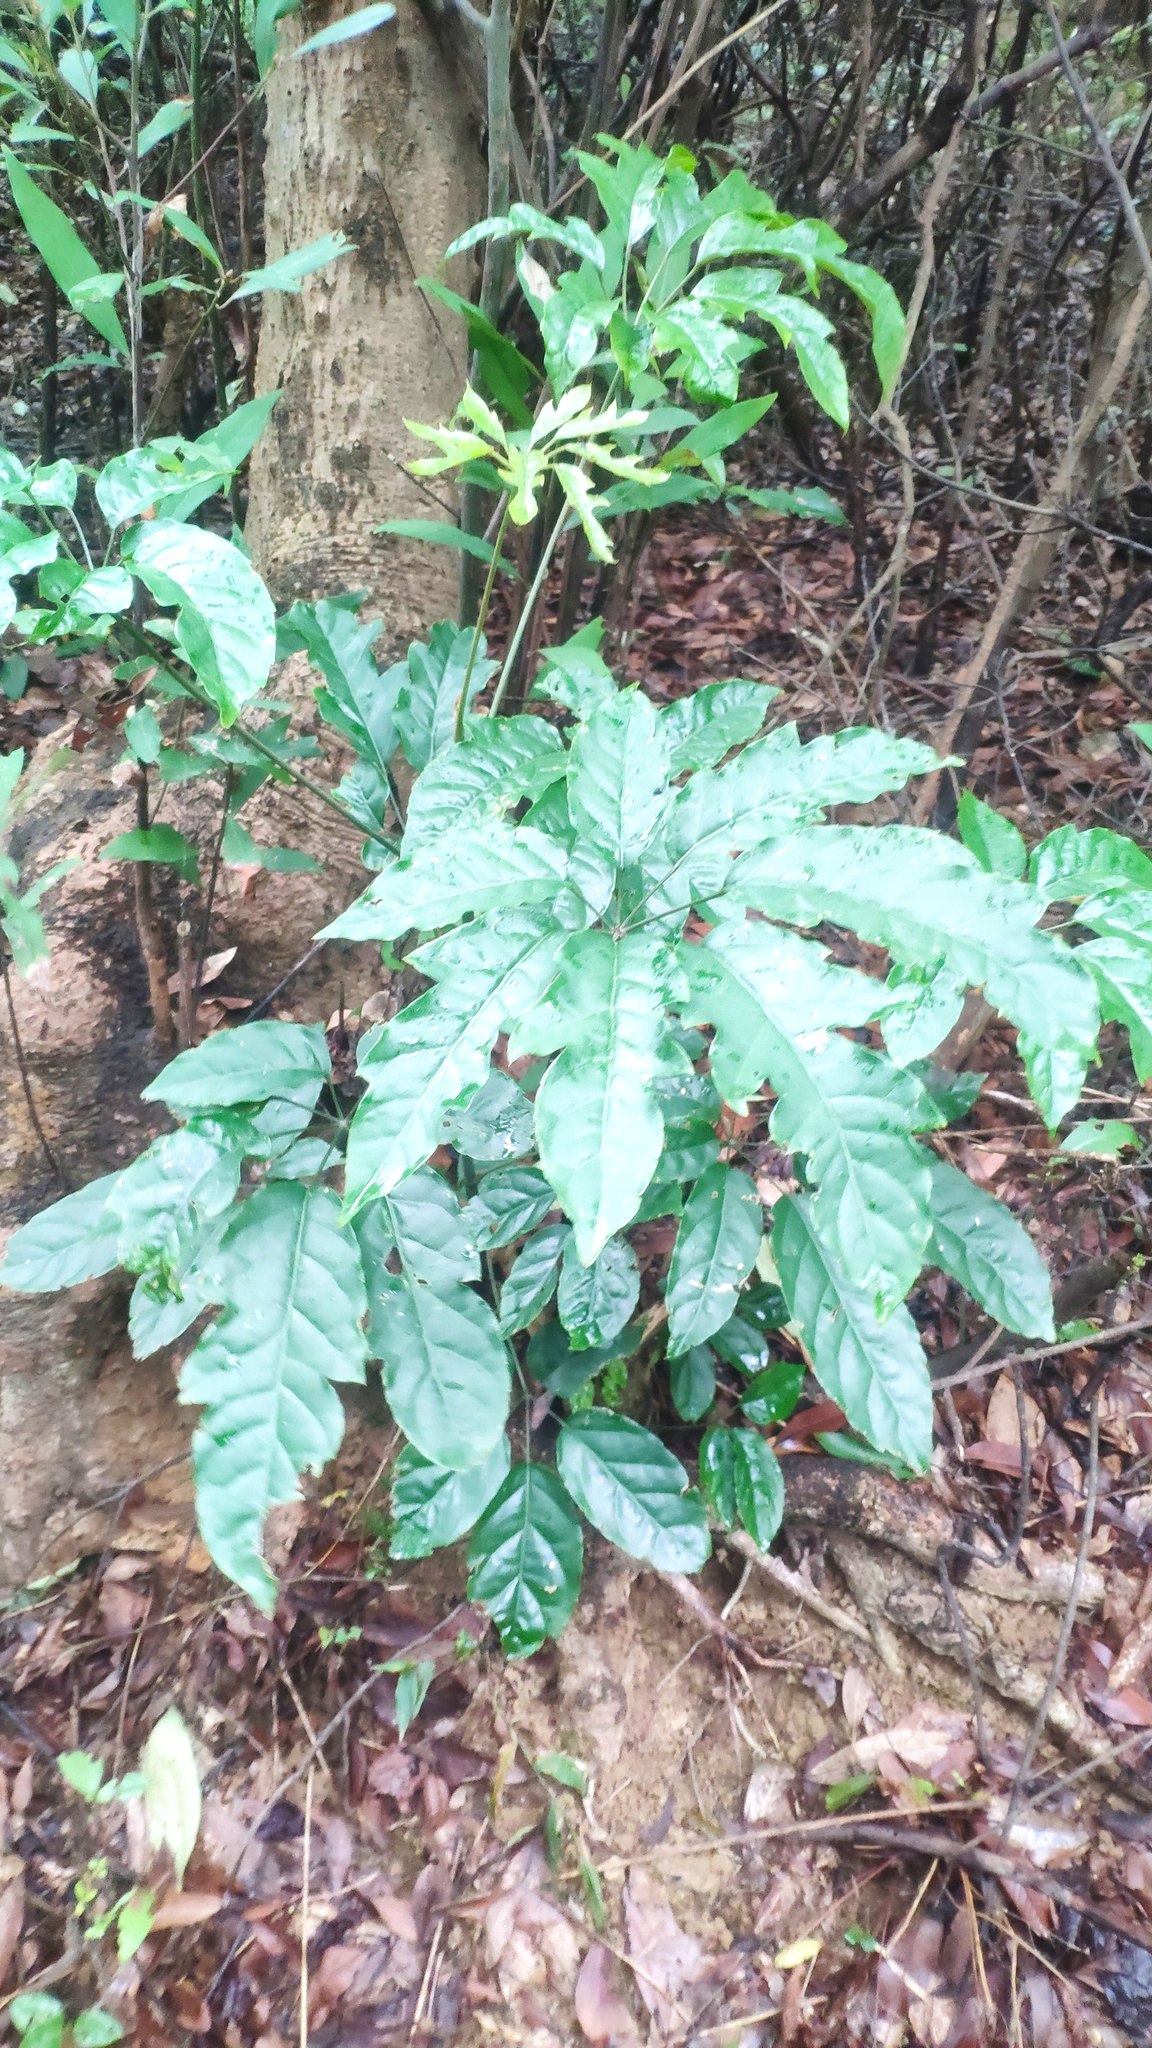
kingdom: Plantae
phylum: Tracheophyta
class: Magnoliopsida
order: Apiales
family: Araliaceae
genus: Heptapleurum
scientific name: Heptapleurum heptaphyllum
